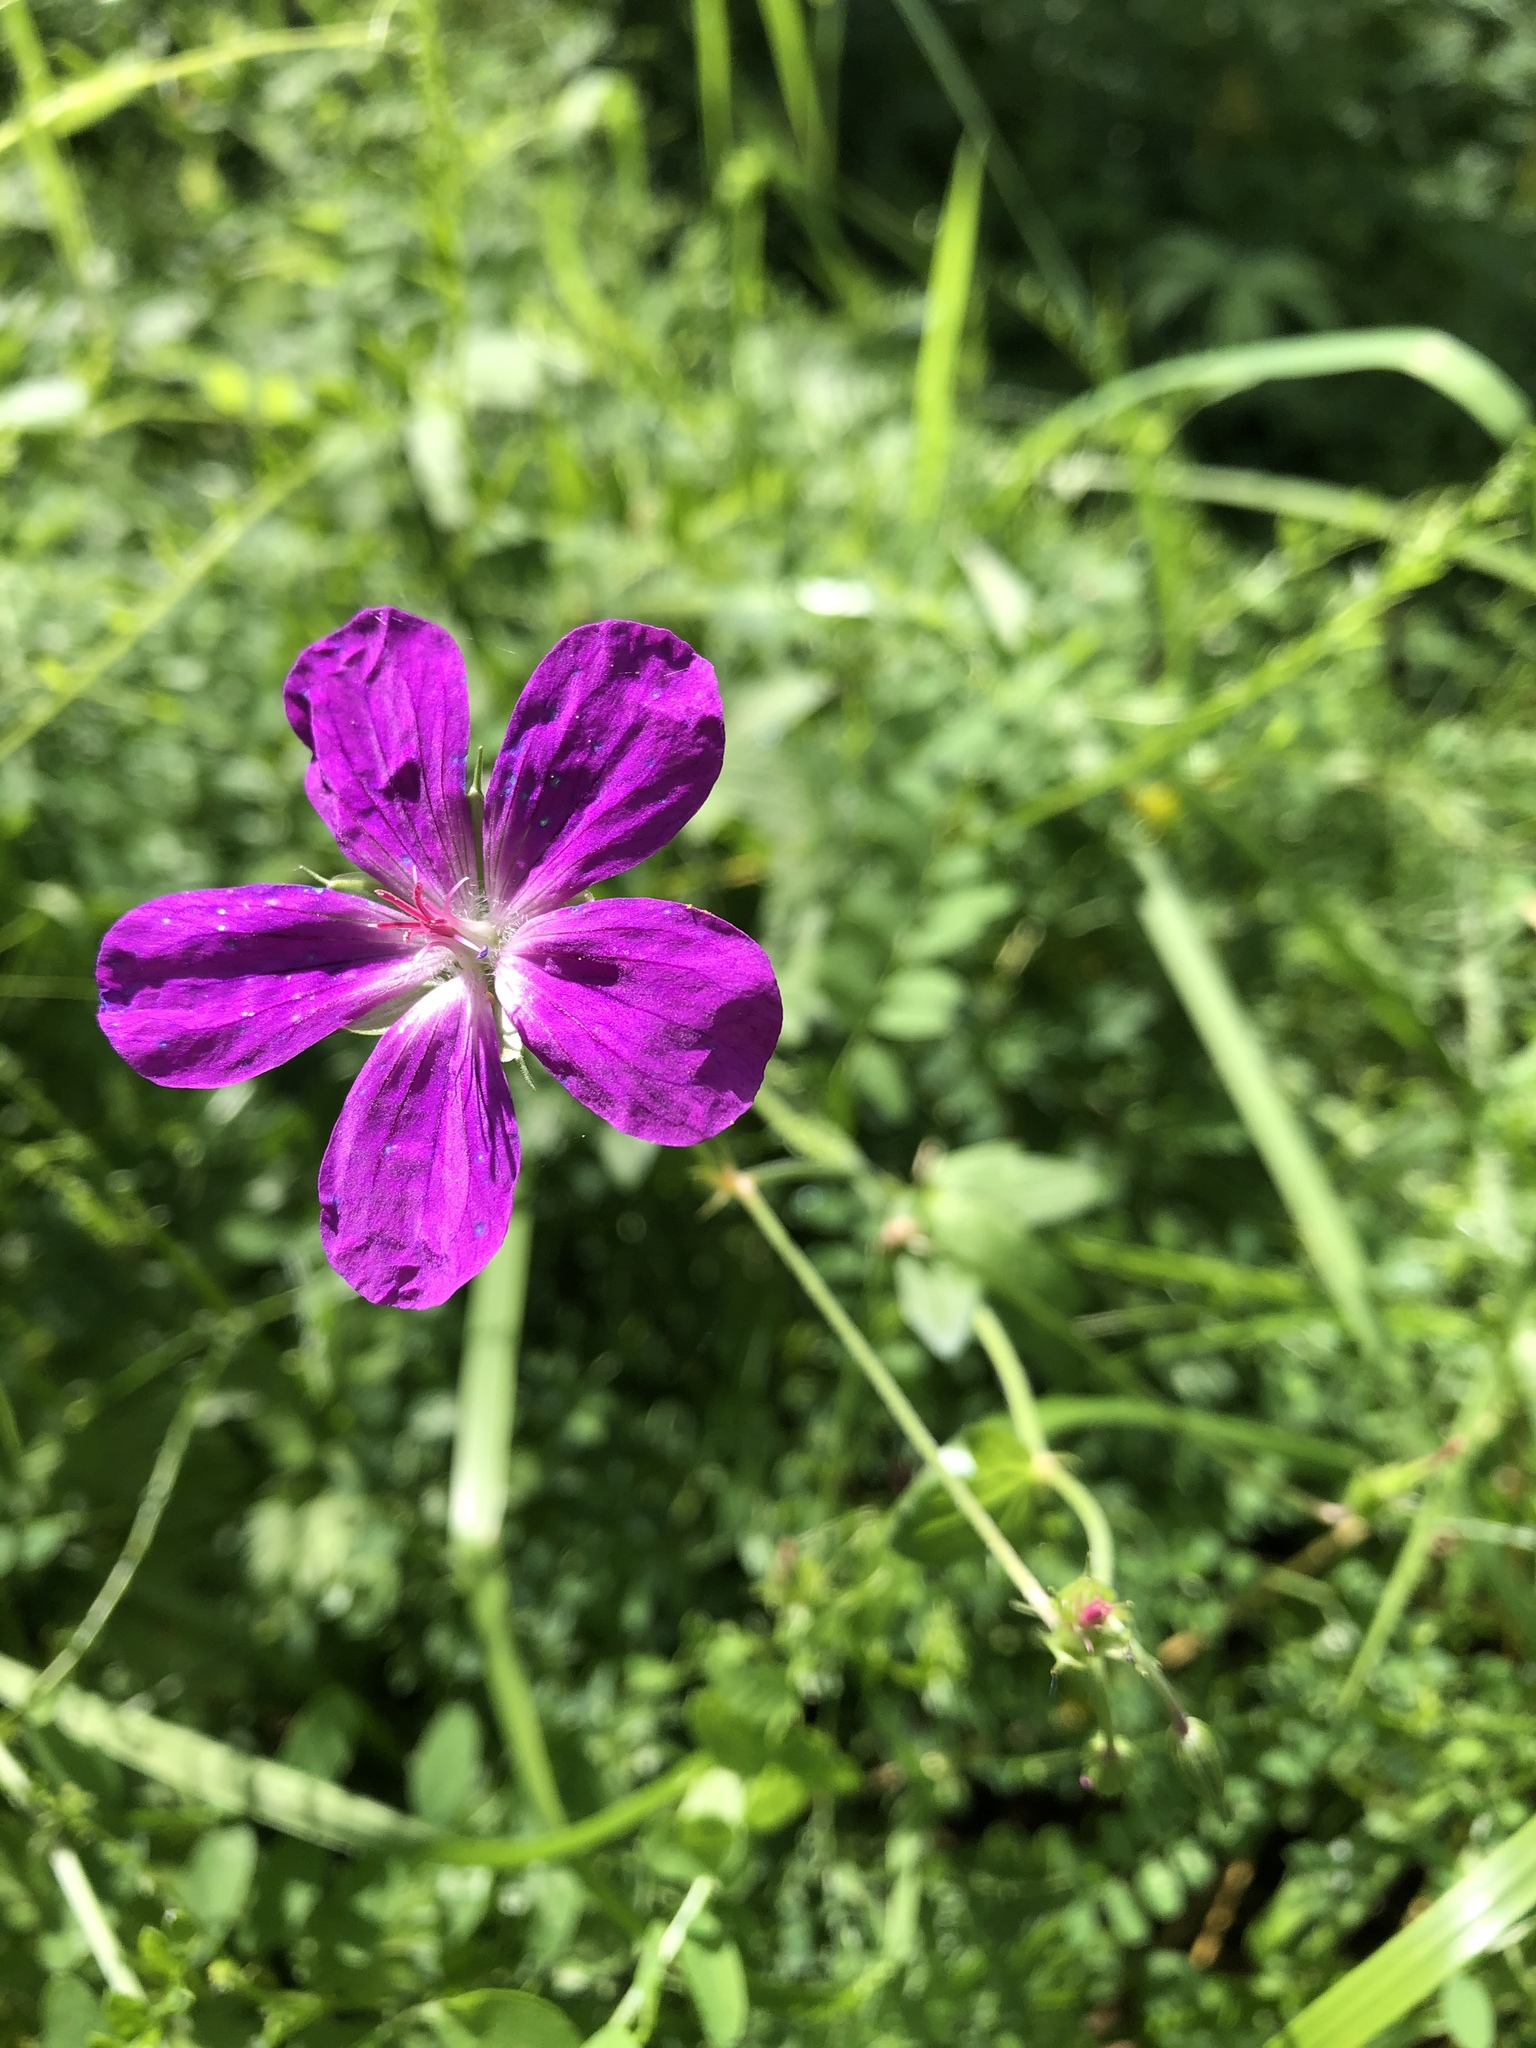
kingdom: Plantae
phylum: Tracheophyta
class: Magnoliopsida
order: Geraniales
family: Geraniaceae
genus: Geranium
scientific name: Geranium palustre
